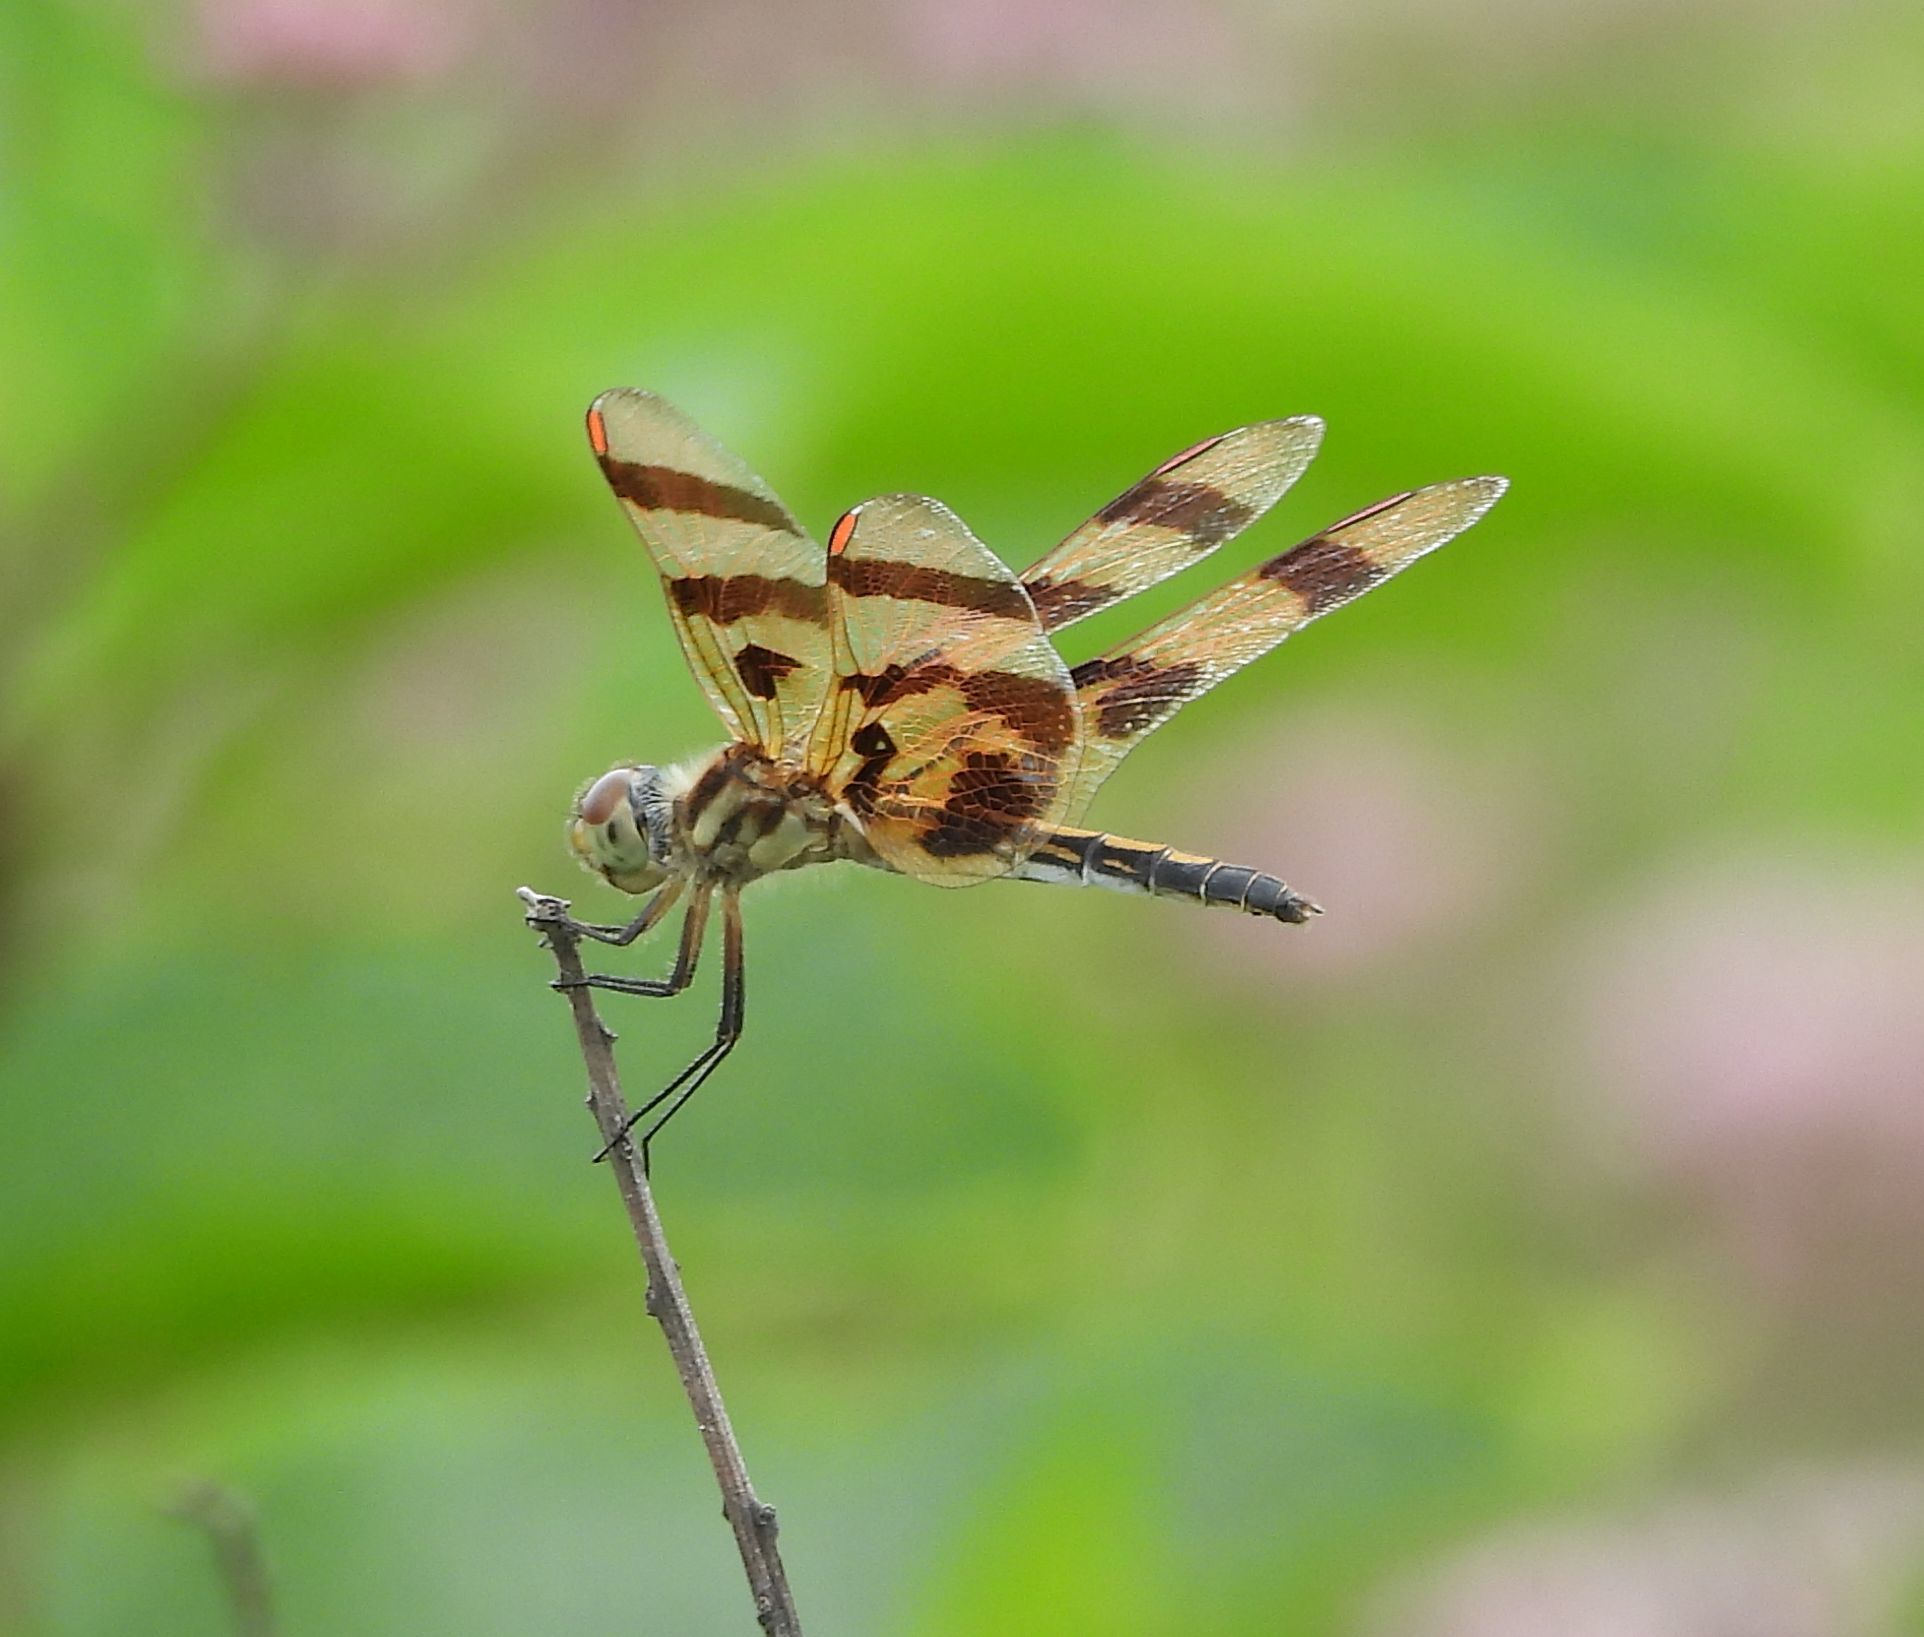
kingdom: Animalia
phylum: Arthropoda
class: Insecta
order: Odonata
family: Libellulidae
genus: Celithemis
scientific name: Celithemis eponina
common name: Halloween pennant
